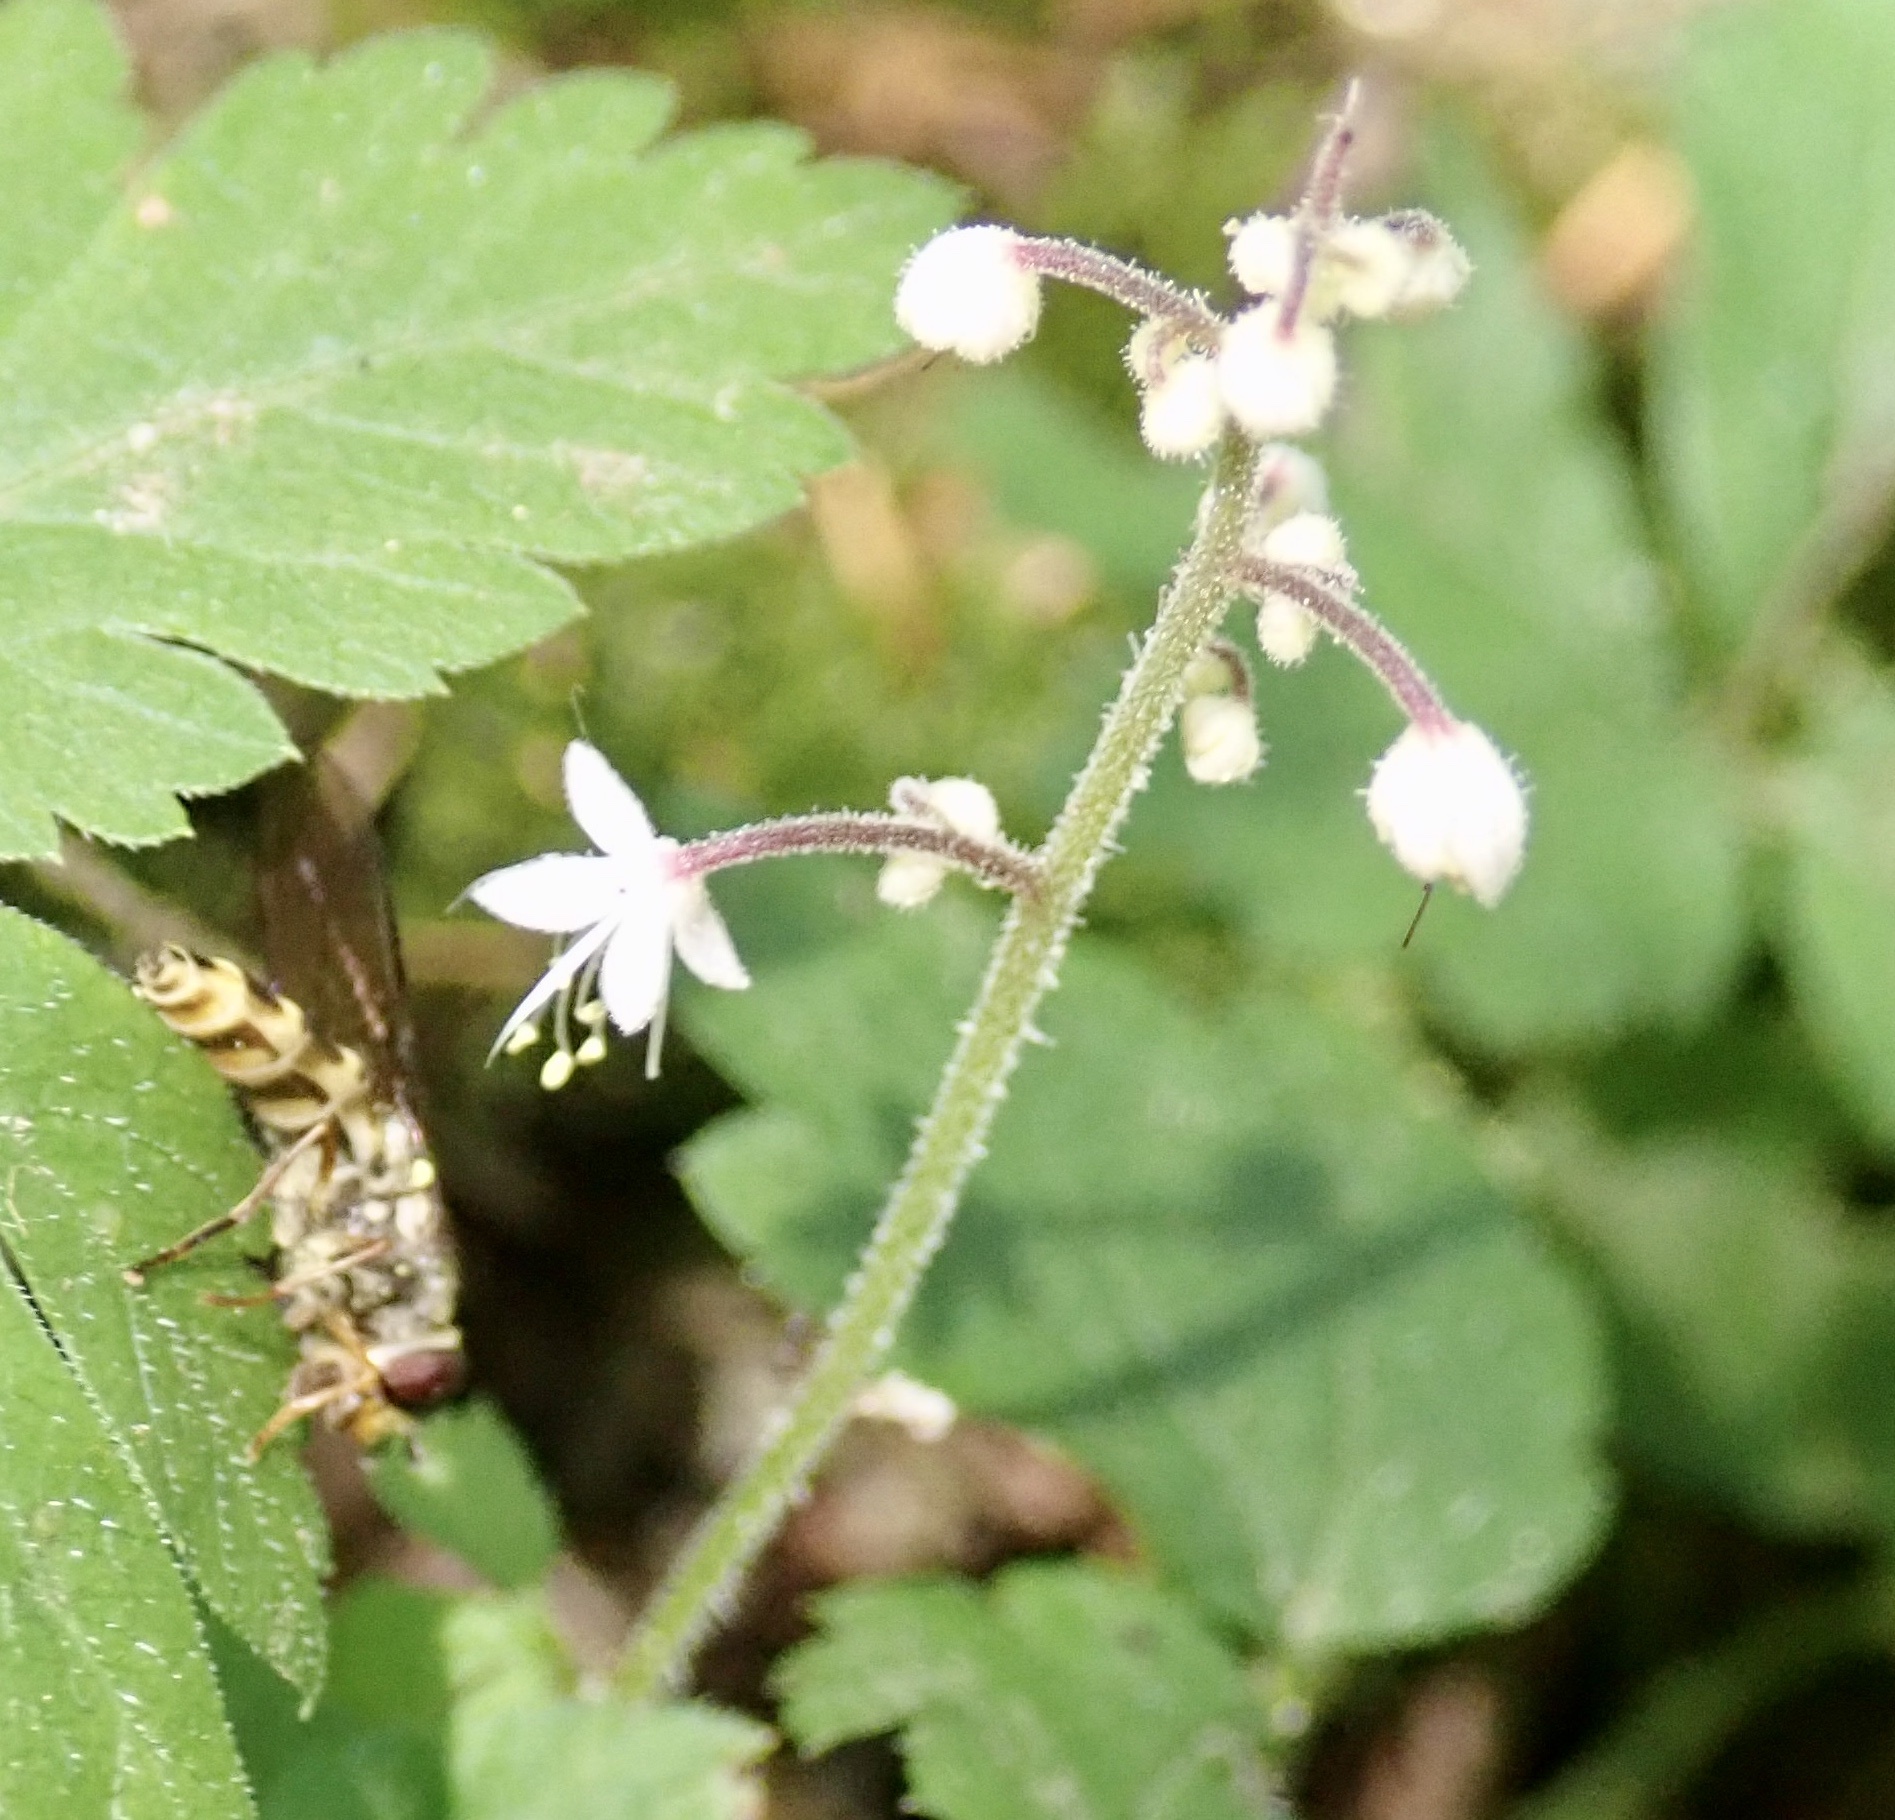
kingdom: Plantae
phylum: Tracheophyta
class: Magnoliopsida
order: Saxifragales
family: Saxifragaceae
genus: Tiarella
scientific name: Tiarella trifoliata
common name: Sugar-scoop
